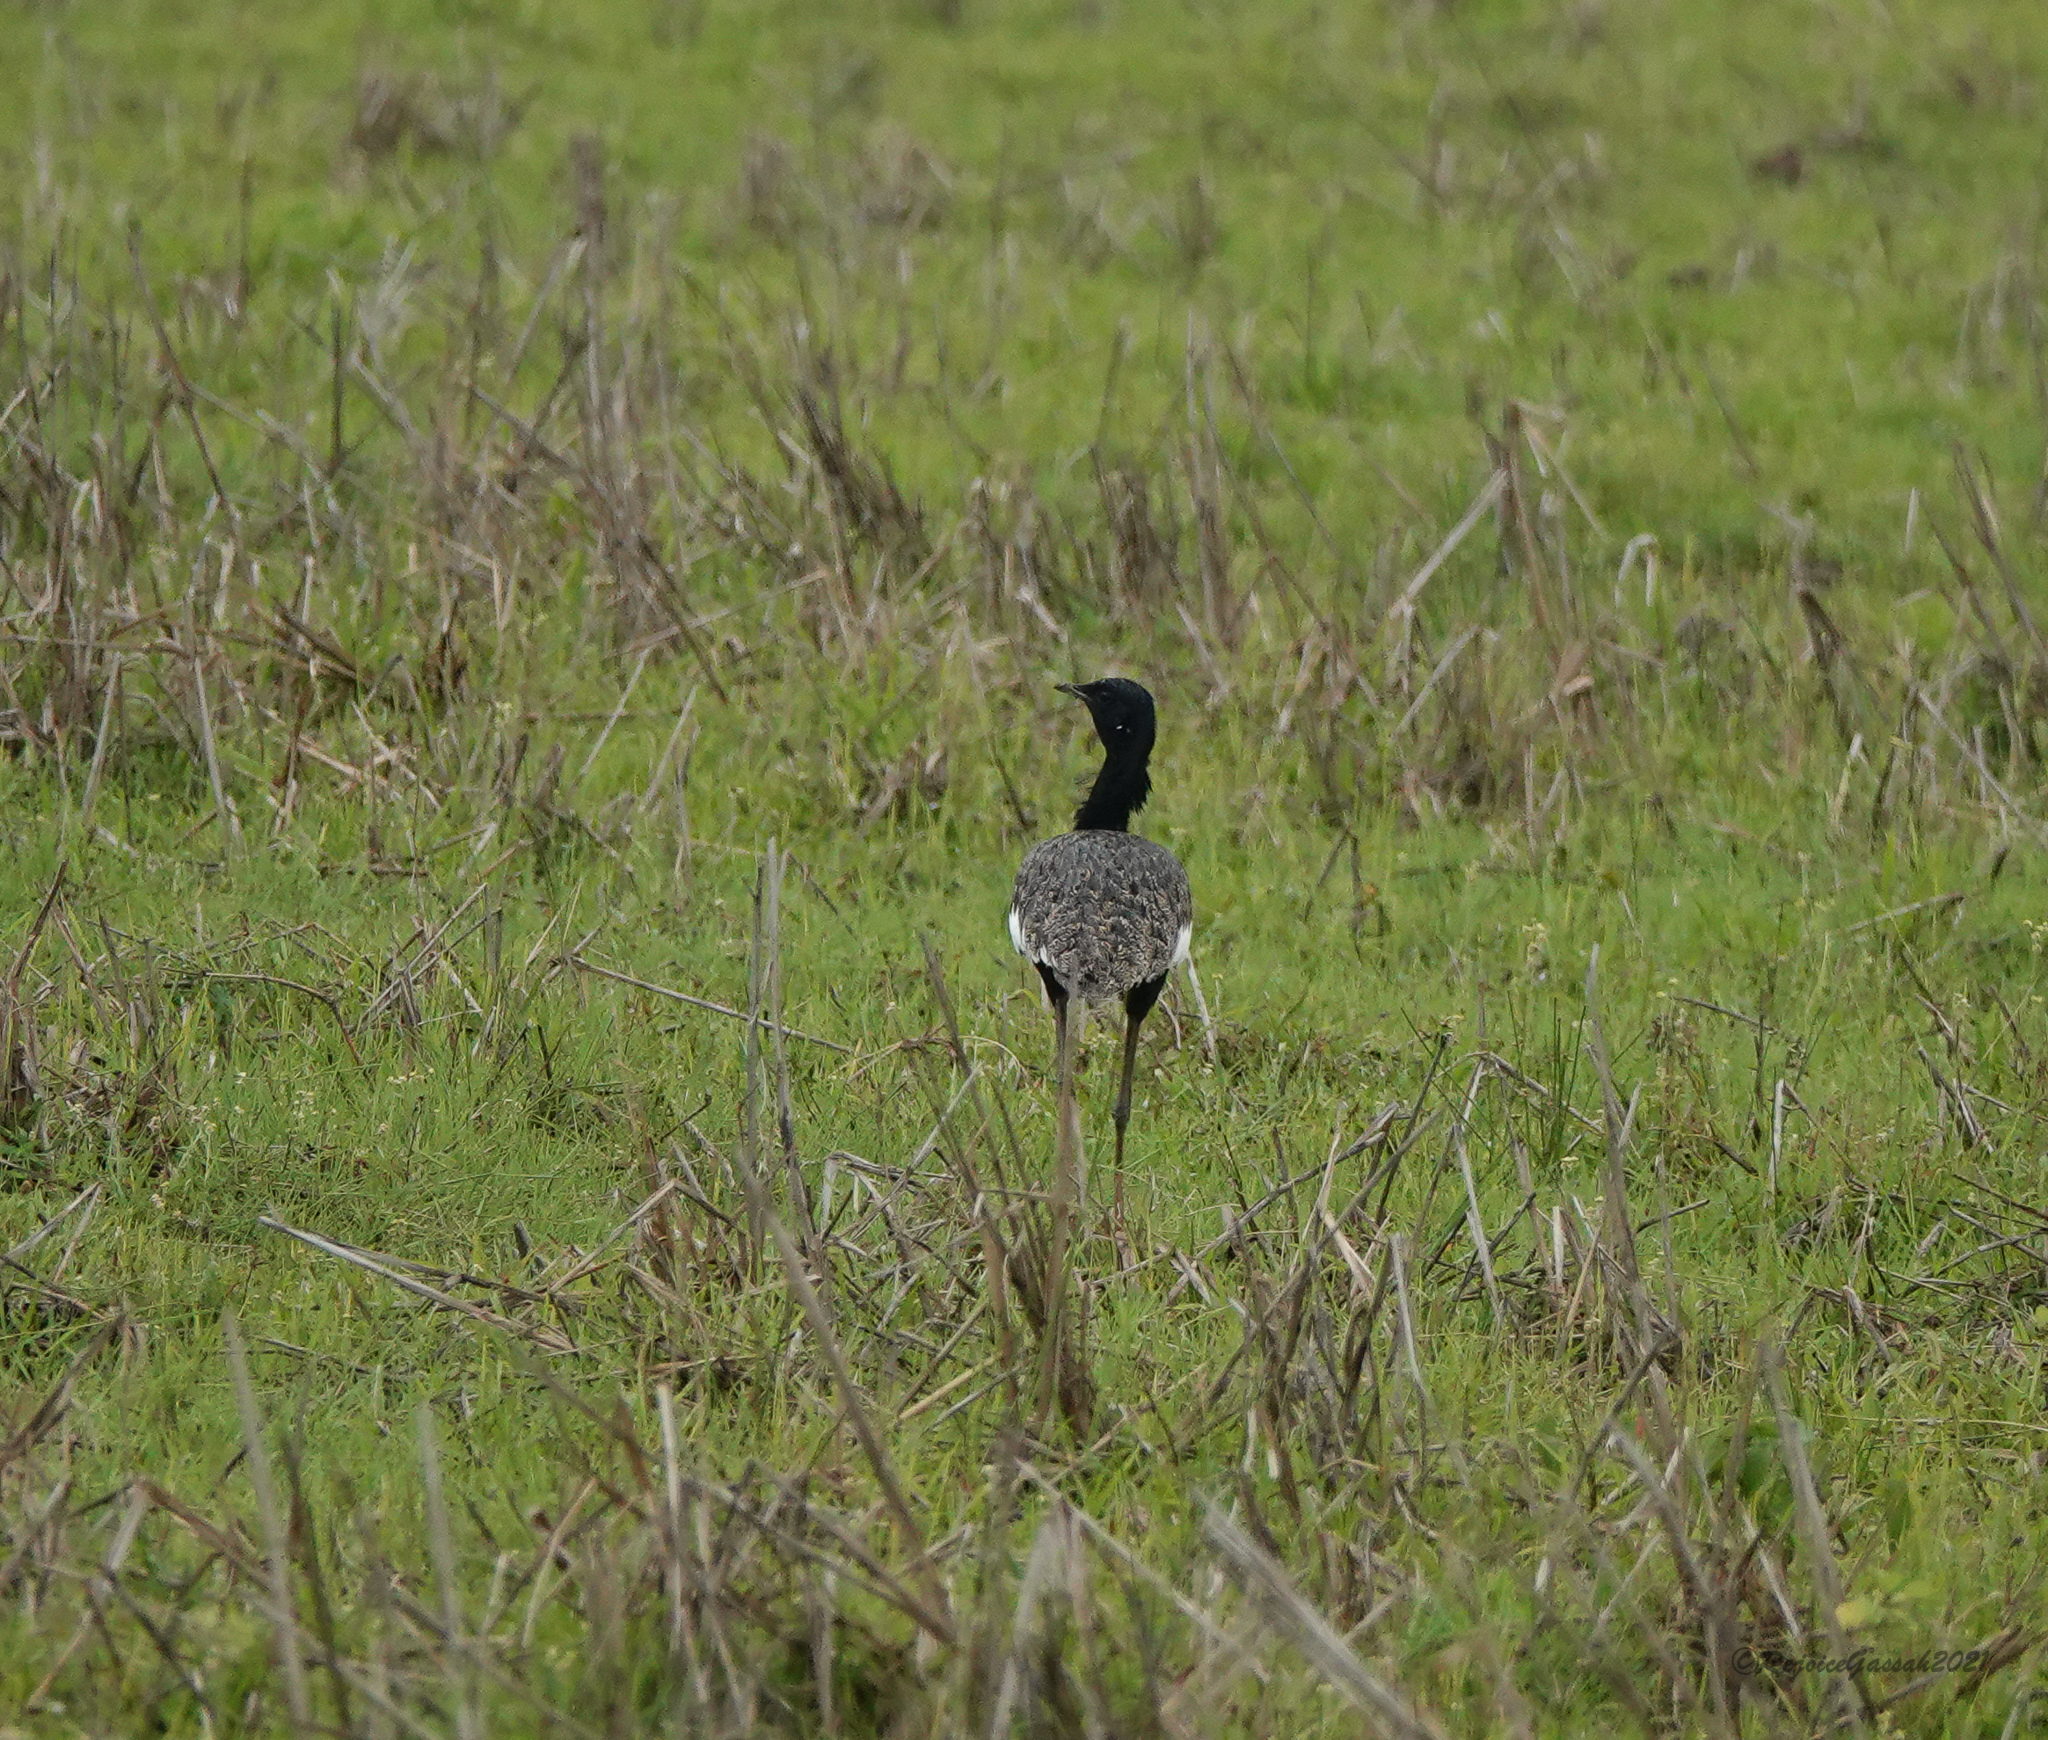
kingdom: Animalia
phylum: Chordata
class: Aves
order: Otidiformes
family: Otididae
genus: Houbaropsis
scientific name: Houbaropsis bengalensis
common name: Bengal florican
